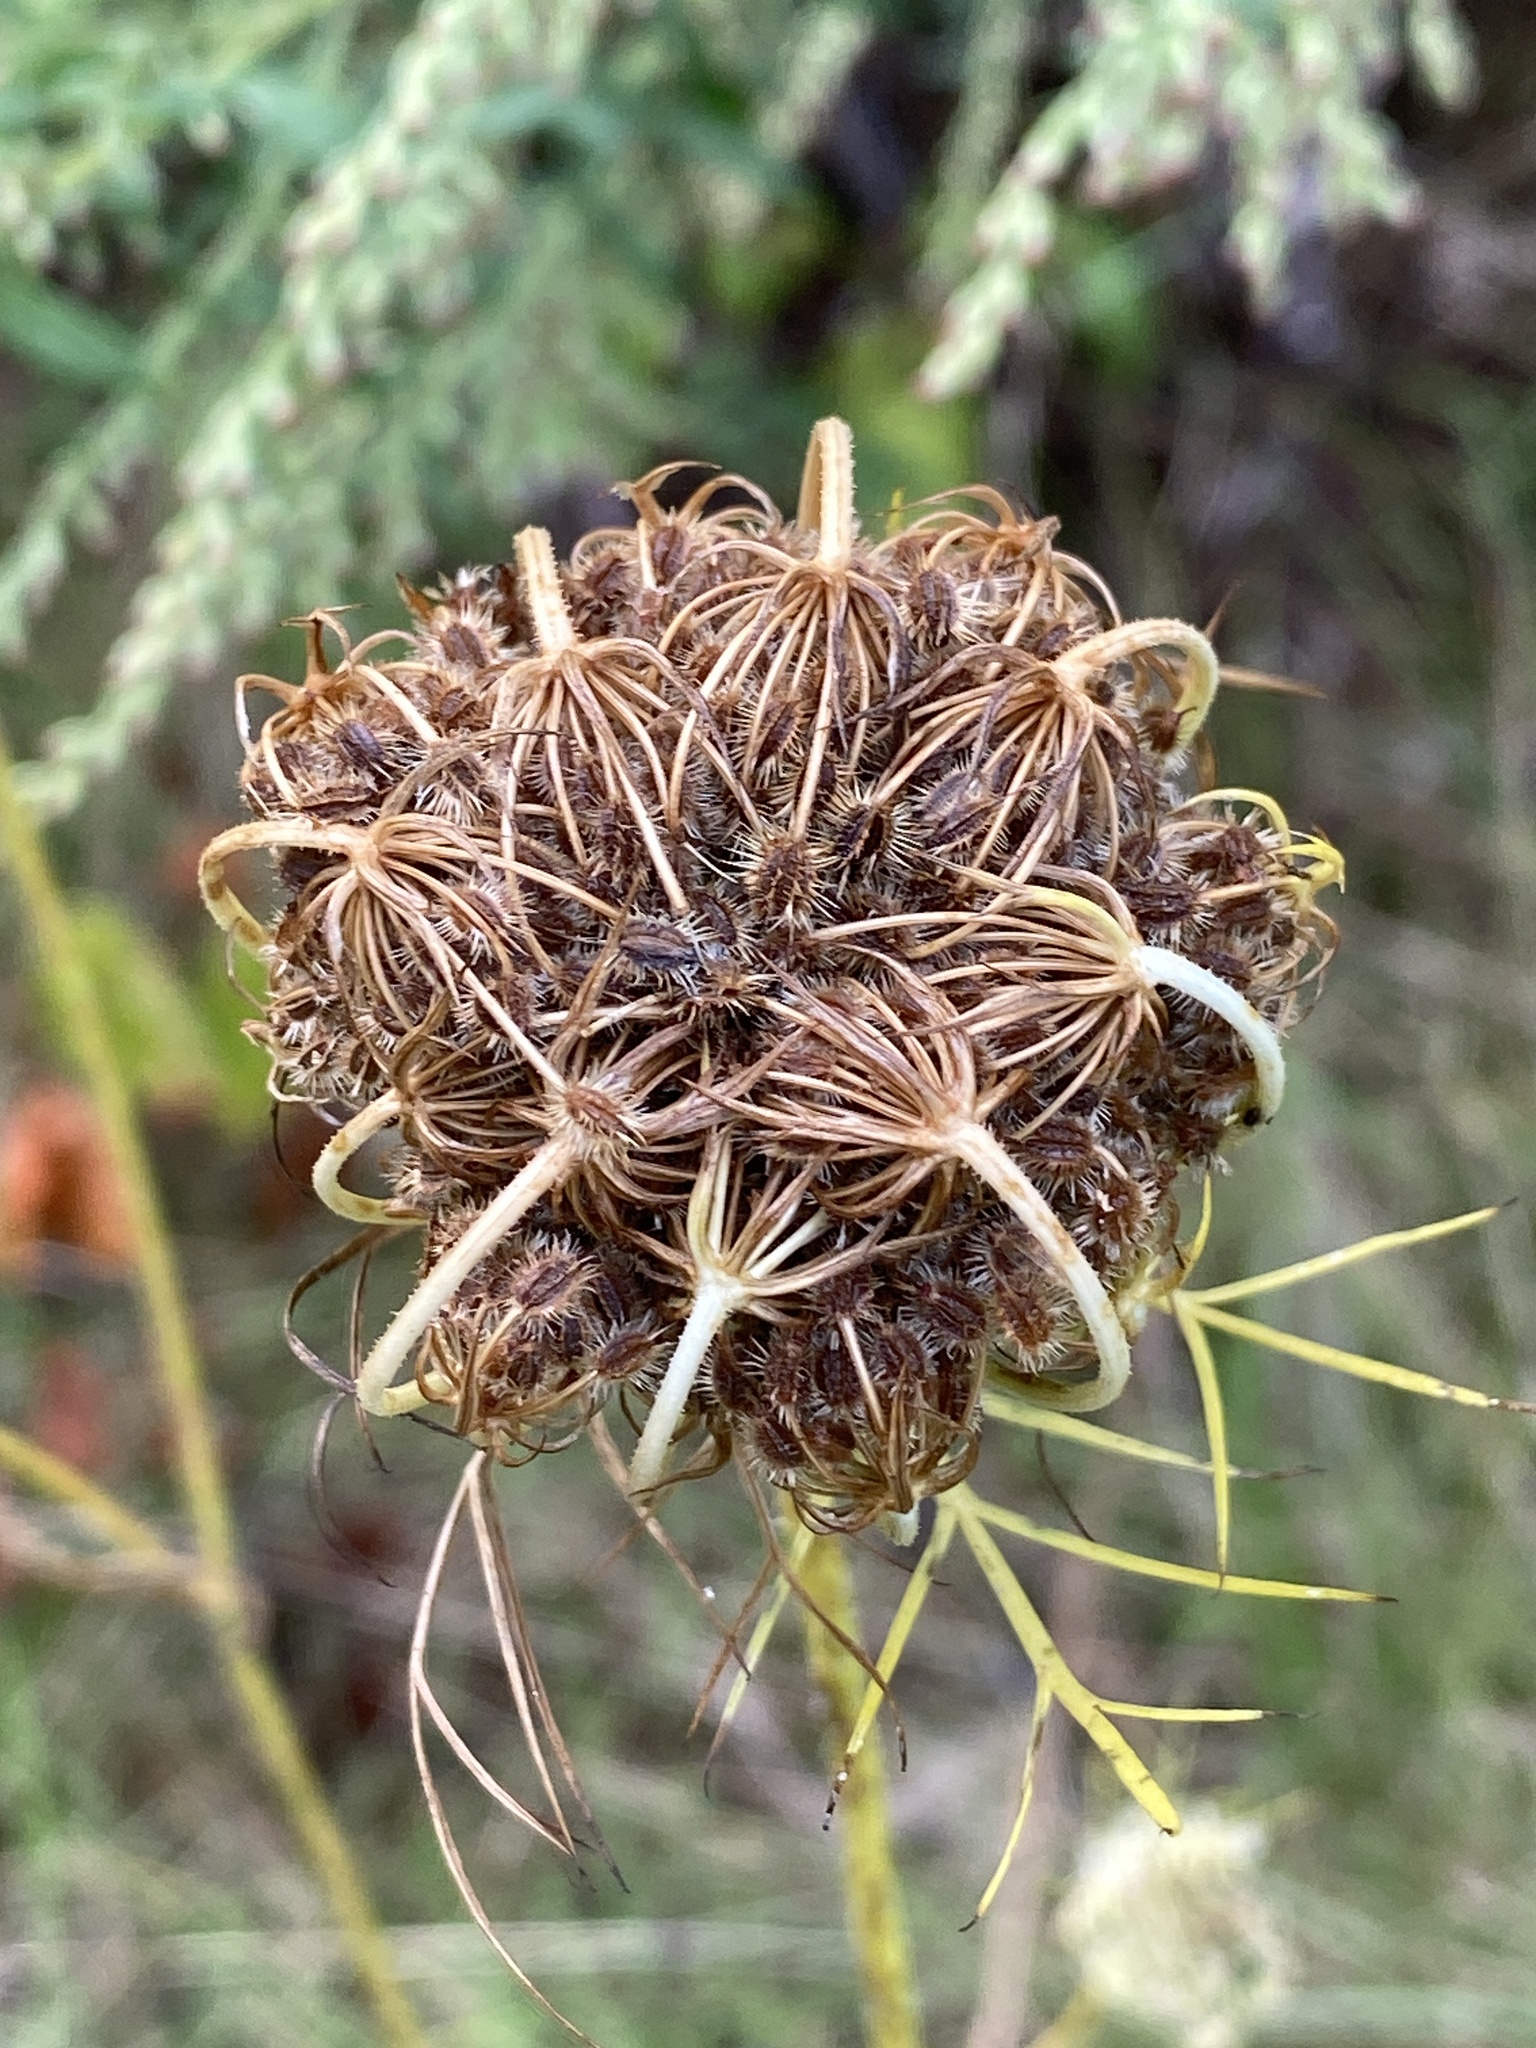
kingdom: Plantae
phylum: Tracheophyta
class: Magnoliopsida
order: Apiales
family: Apiaceae
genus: Daucus
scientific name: Daucus carota
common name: Wild carrot
